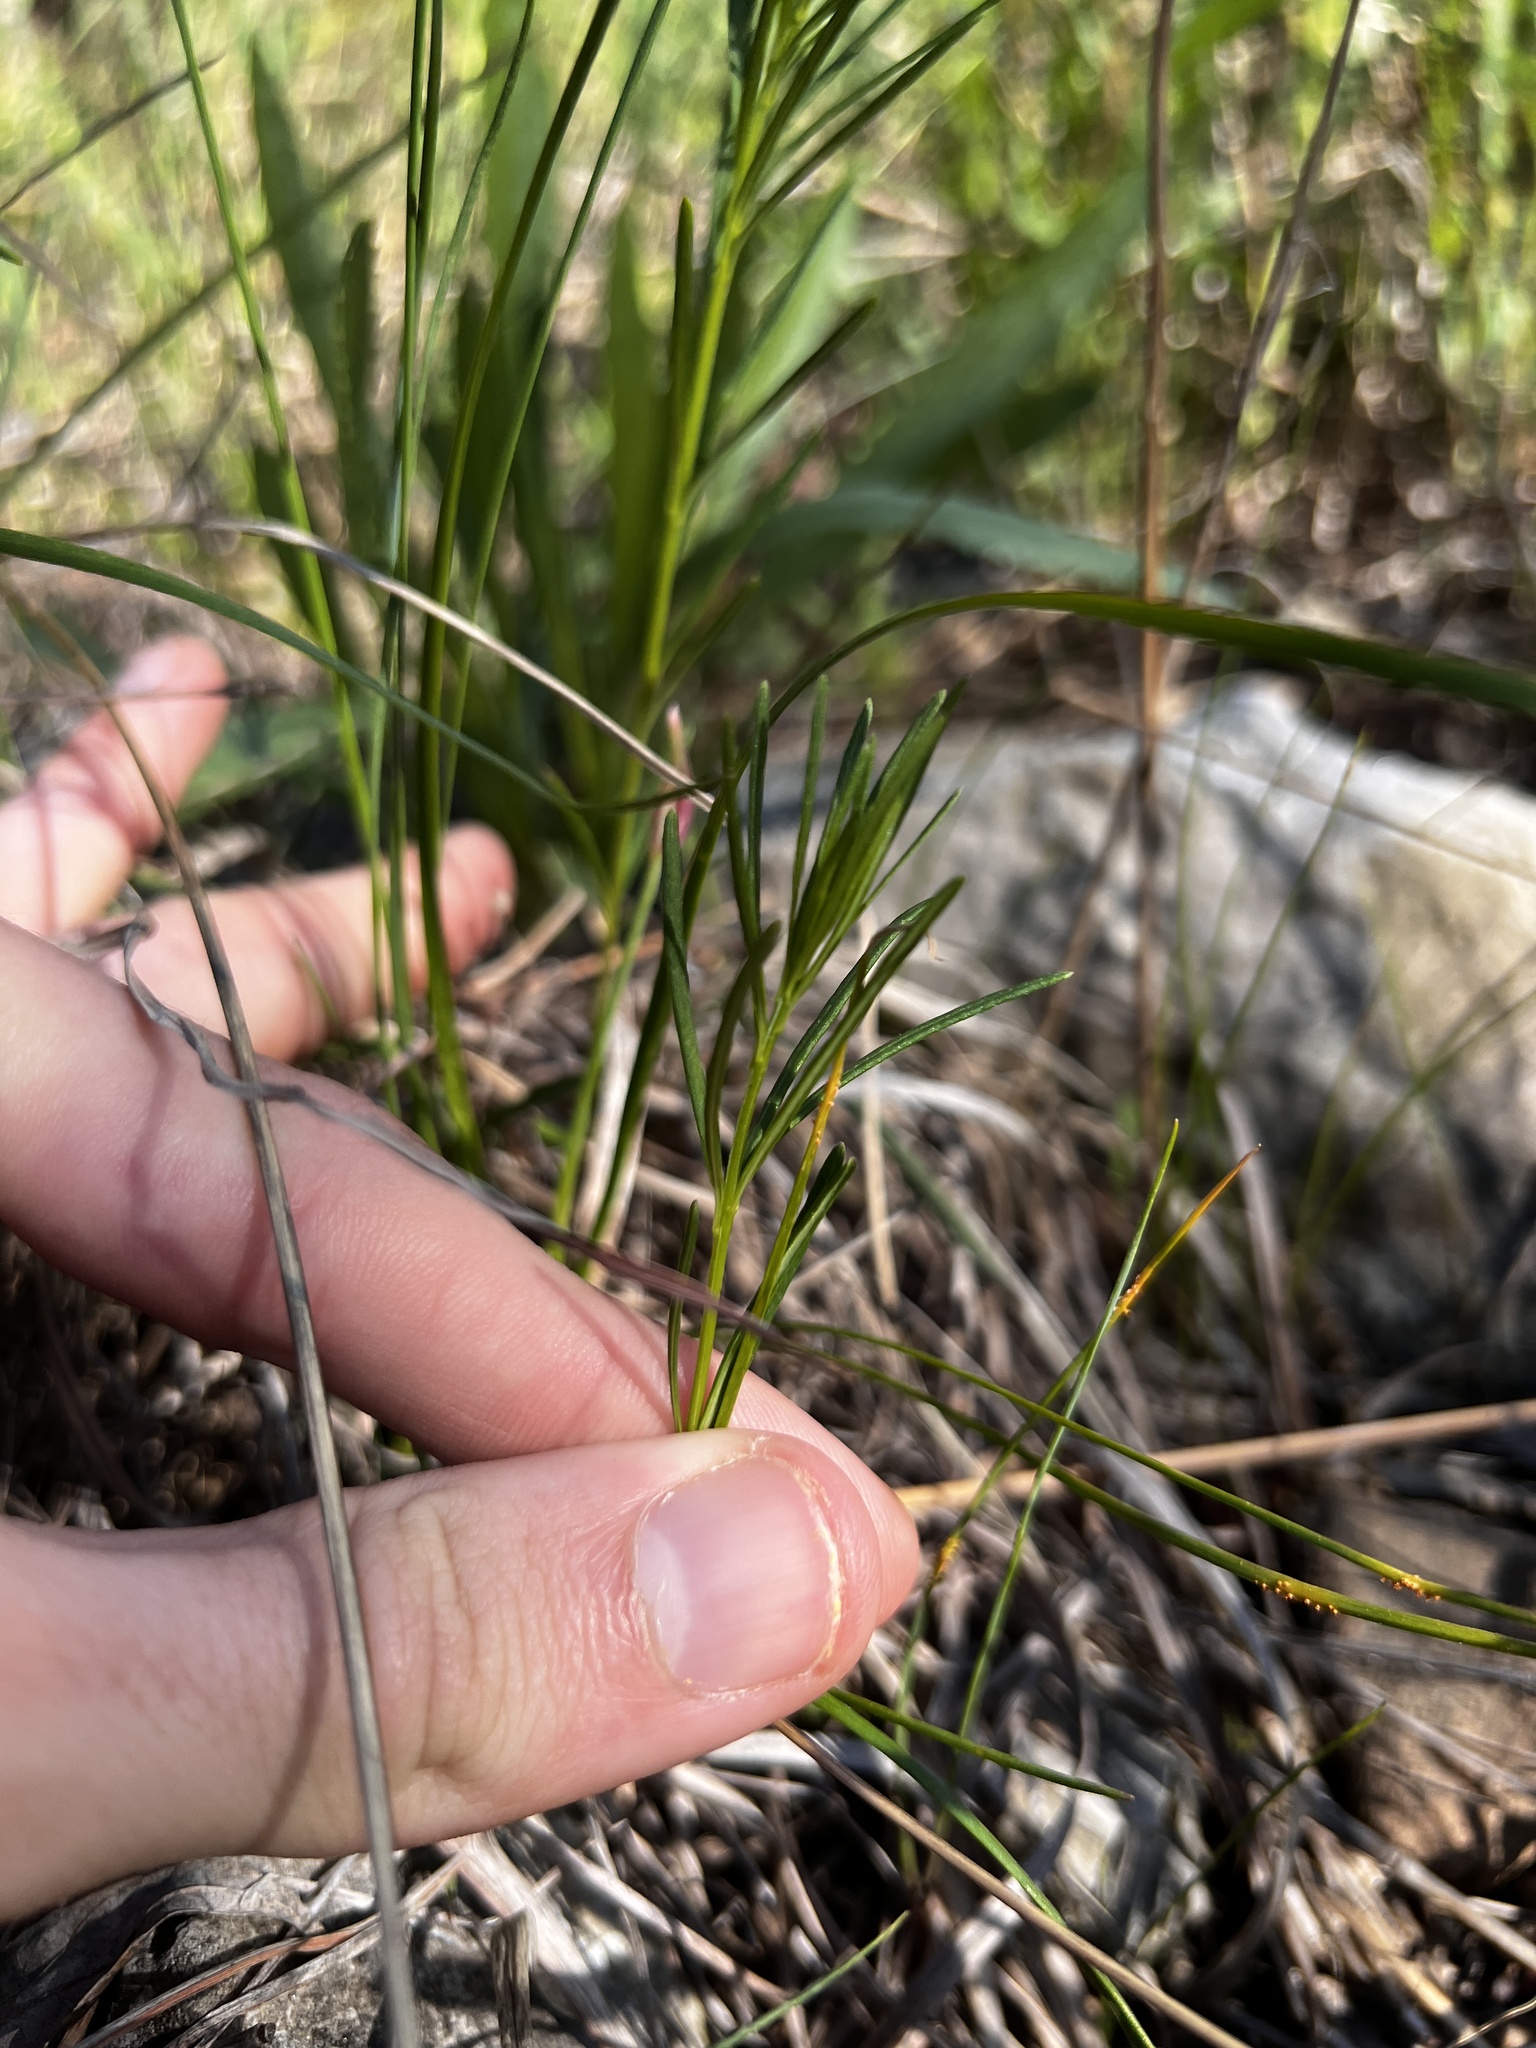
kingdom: Plantae
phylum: Tracheophyta
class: Magnoliopsida
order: Gentianales
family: Apocynaceae
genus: Asclepias
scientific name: Asclepias verticillata
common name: Eastern whorled milkweed
